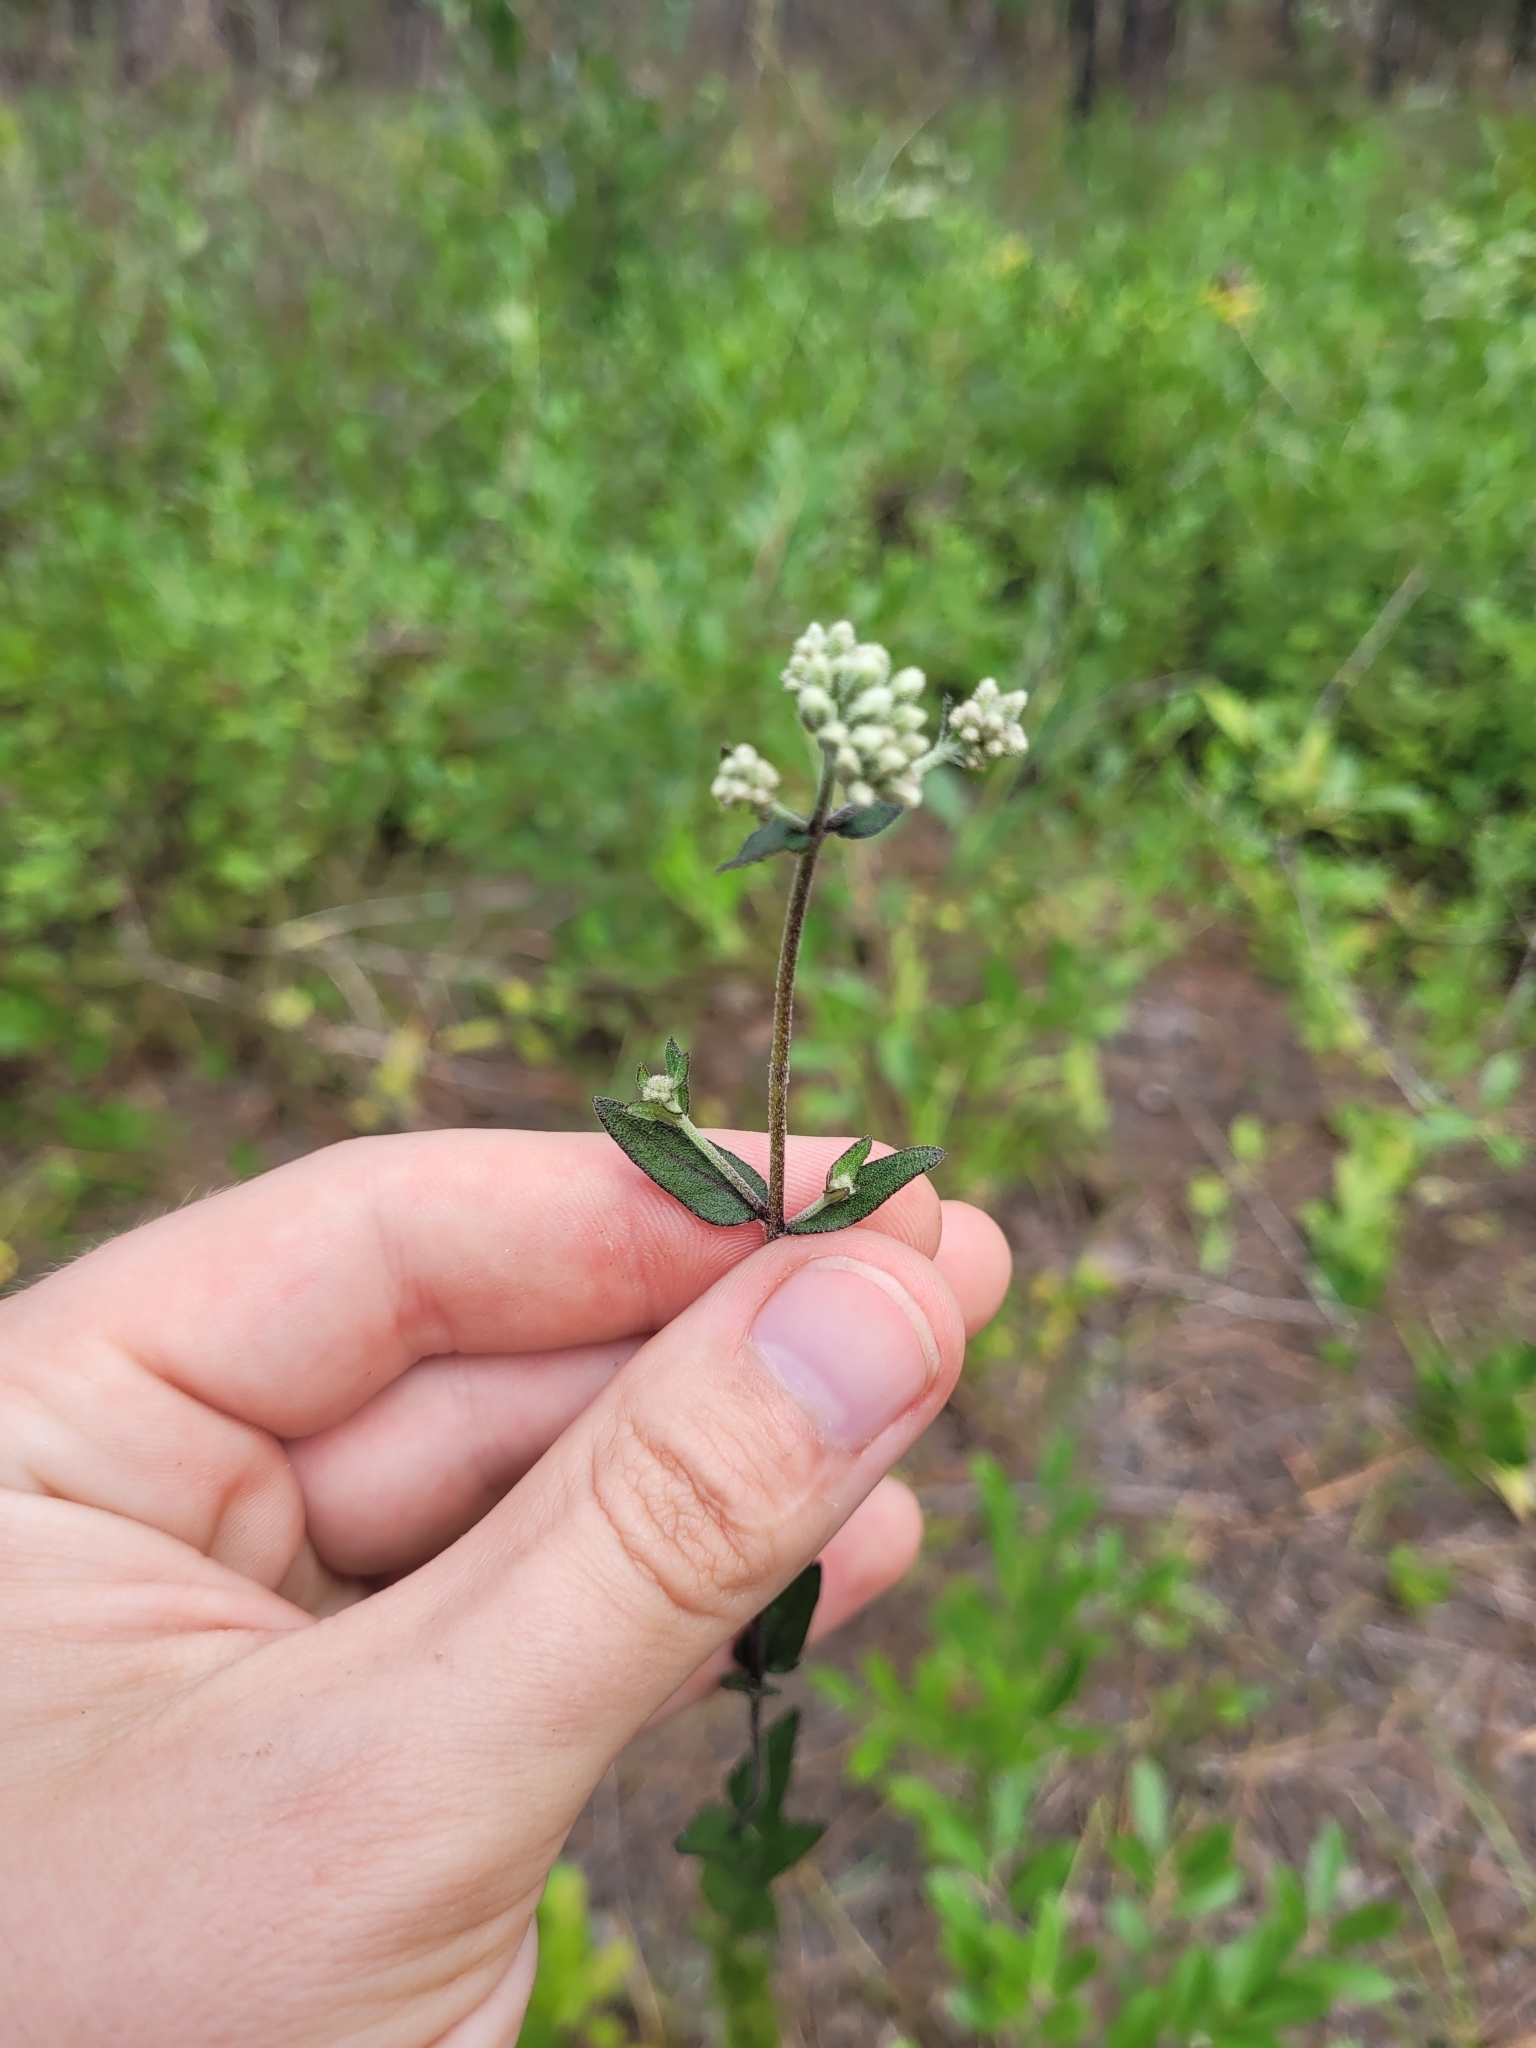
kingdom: Plantae
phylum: Tracheophyta
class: Magnoliopsida
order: Asterales
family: Asteraceae
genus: Eupatorium
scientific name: Eupatorium pilosum
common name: Rough boneset
